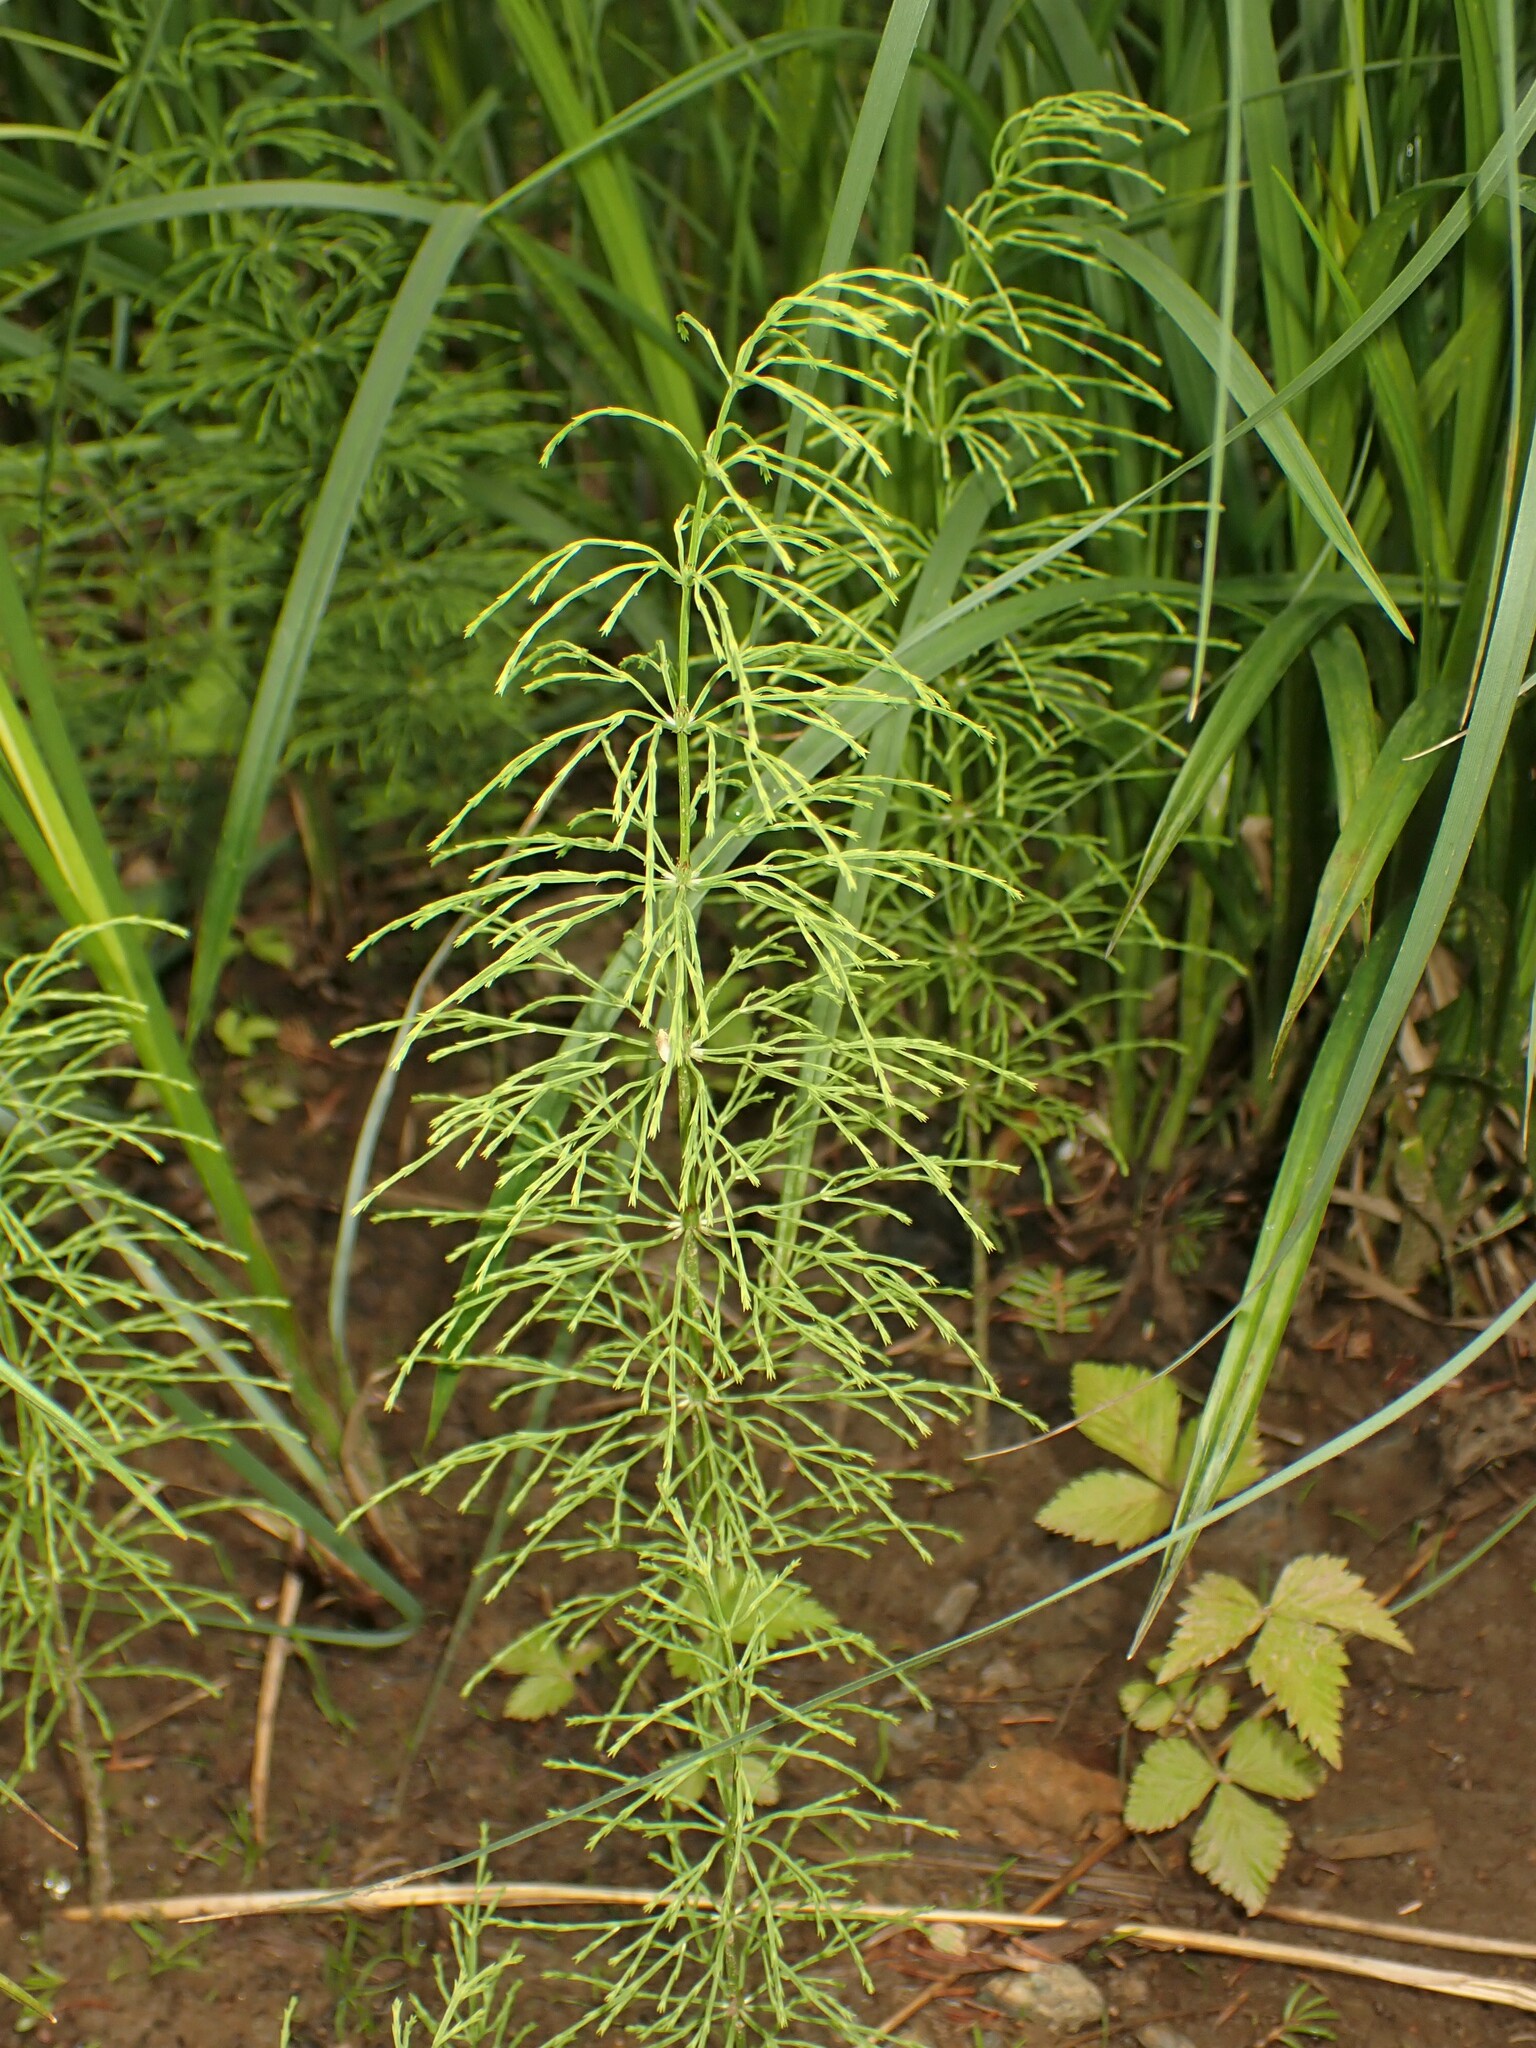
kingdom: Plantae
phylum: Tracheophyta
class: Polypodiopsida
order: Equisetales
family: Equisetaceae
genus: Equisetum
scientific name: Equisetum sylvaticum
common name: Wood horsetail
